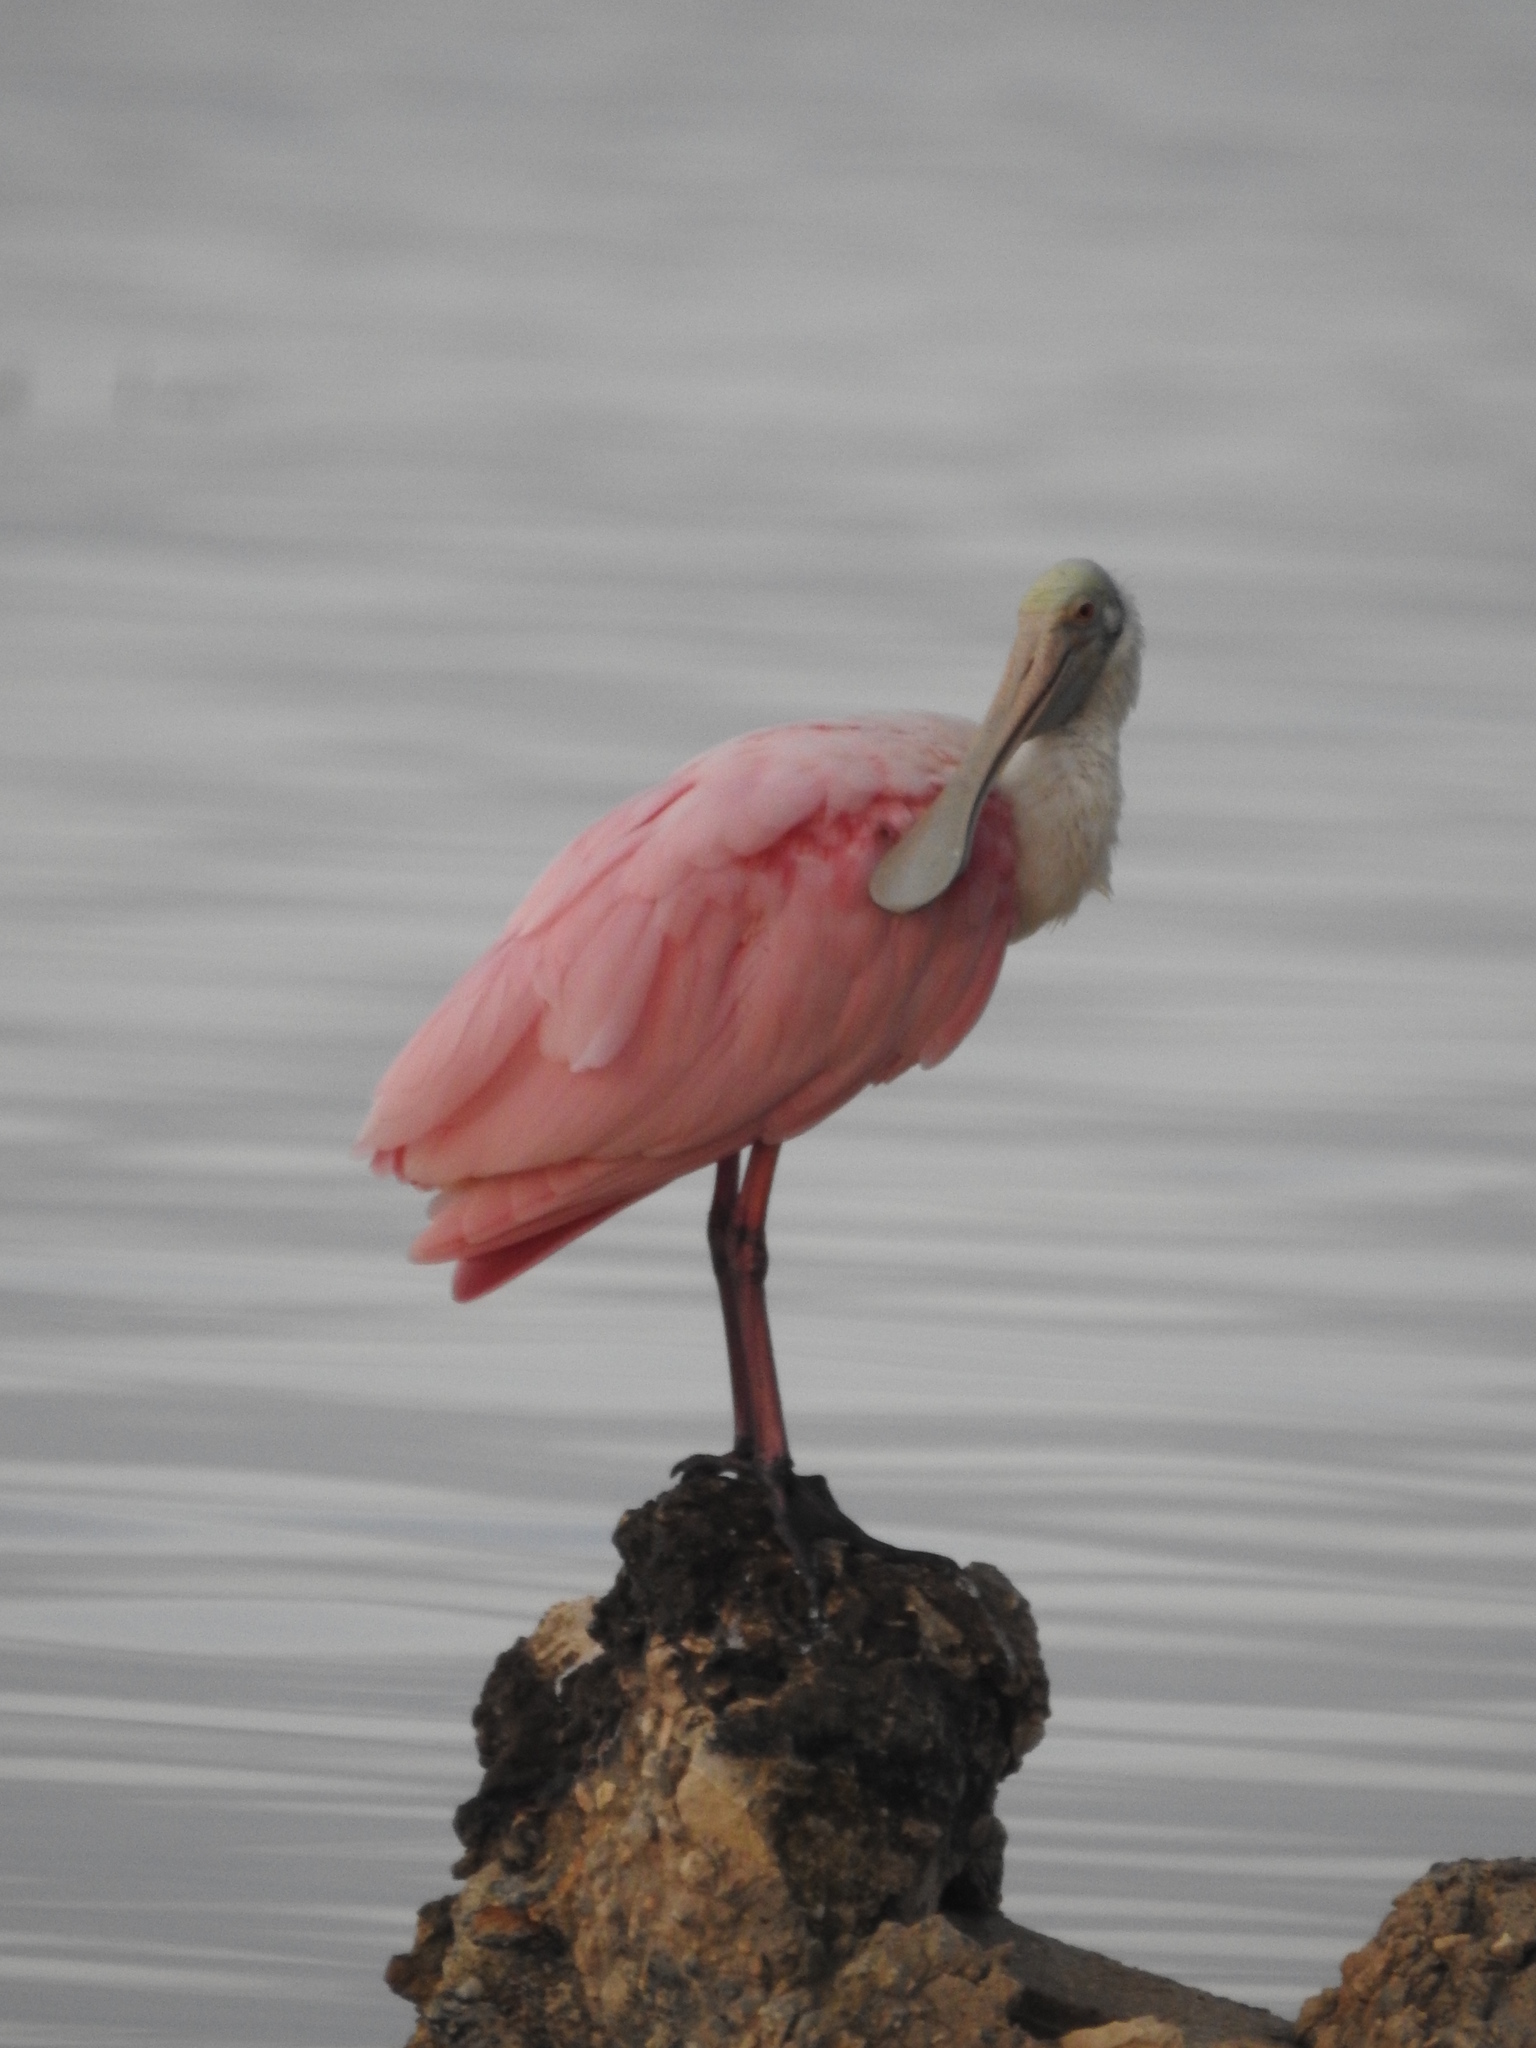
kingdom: Animalia
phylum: Chordata
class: Aves
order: Pelecaniformes
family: Threskiornithidae
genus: Platalea
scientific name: Platalea ajaja
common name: Roseate spoonbill
